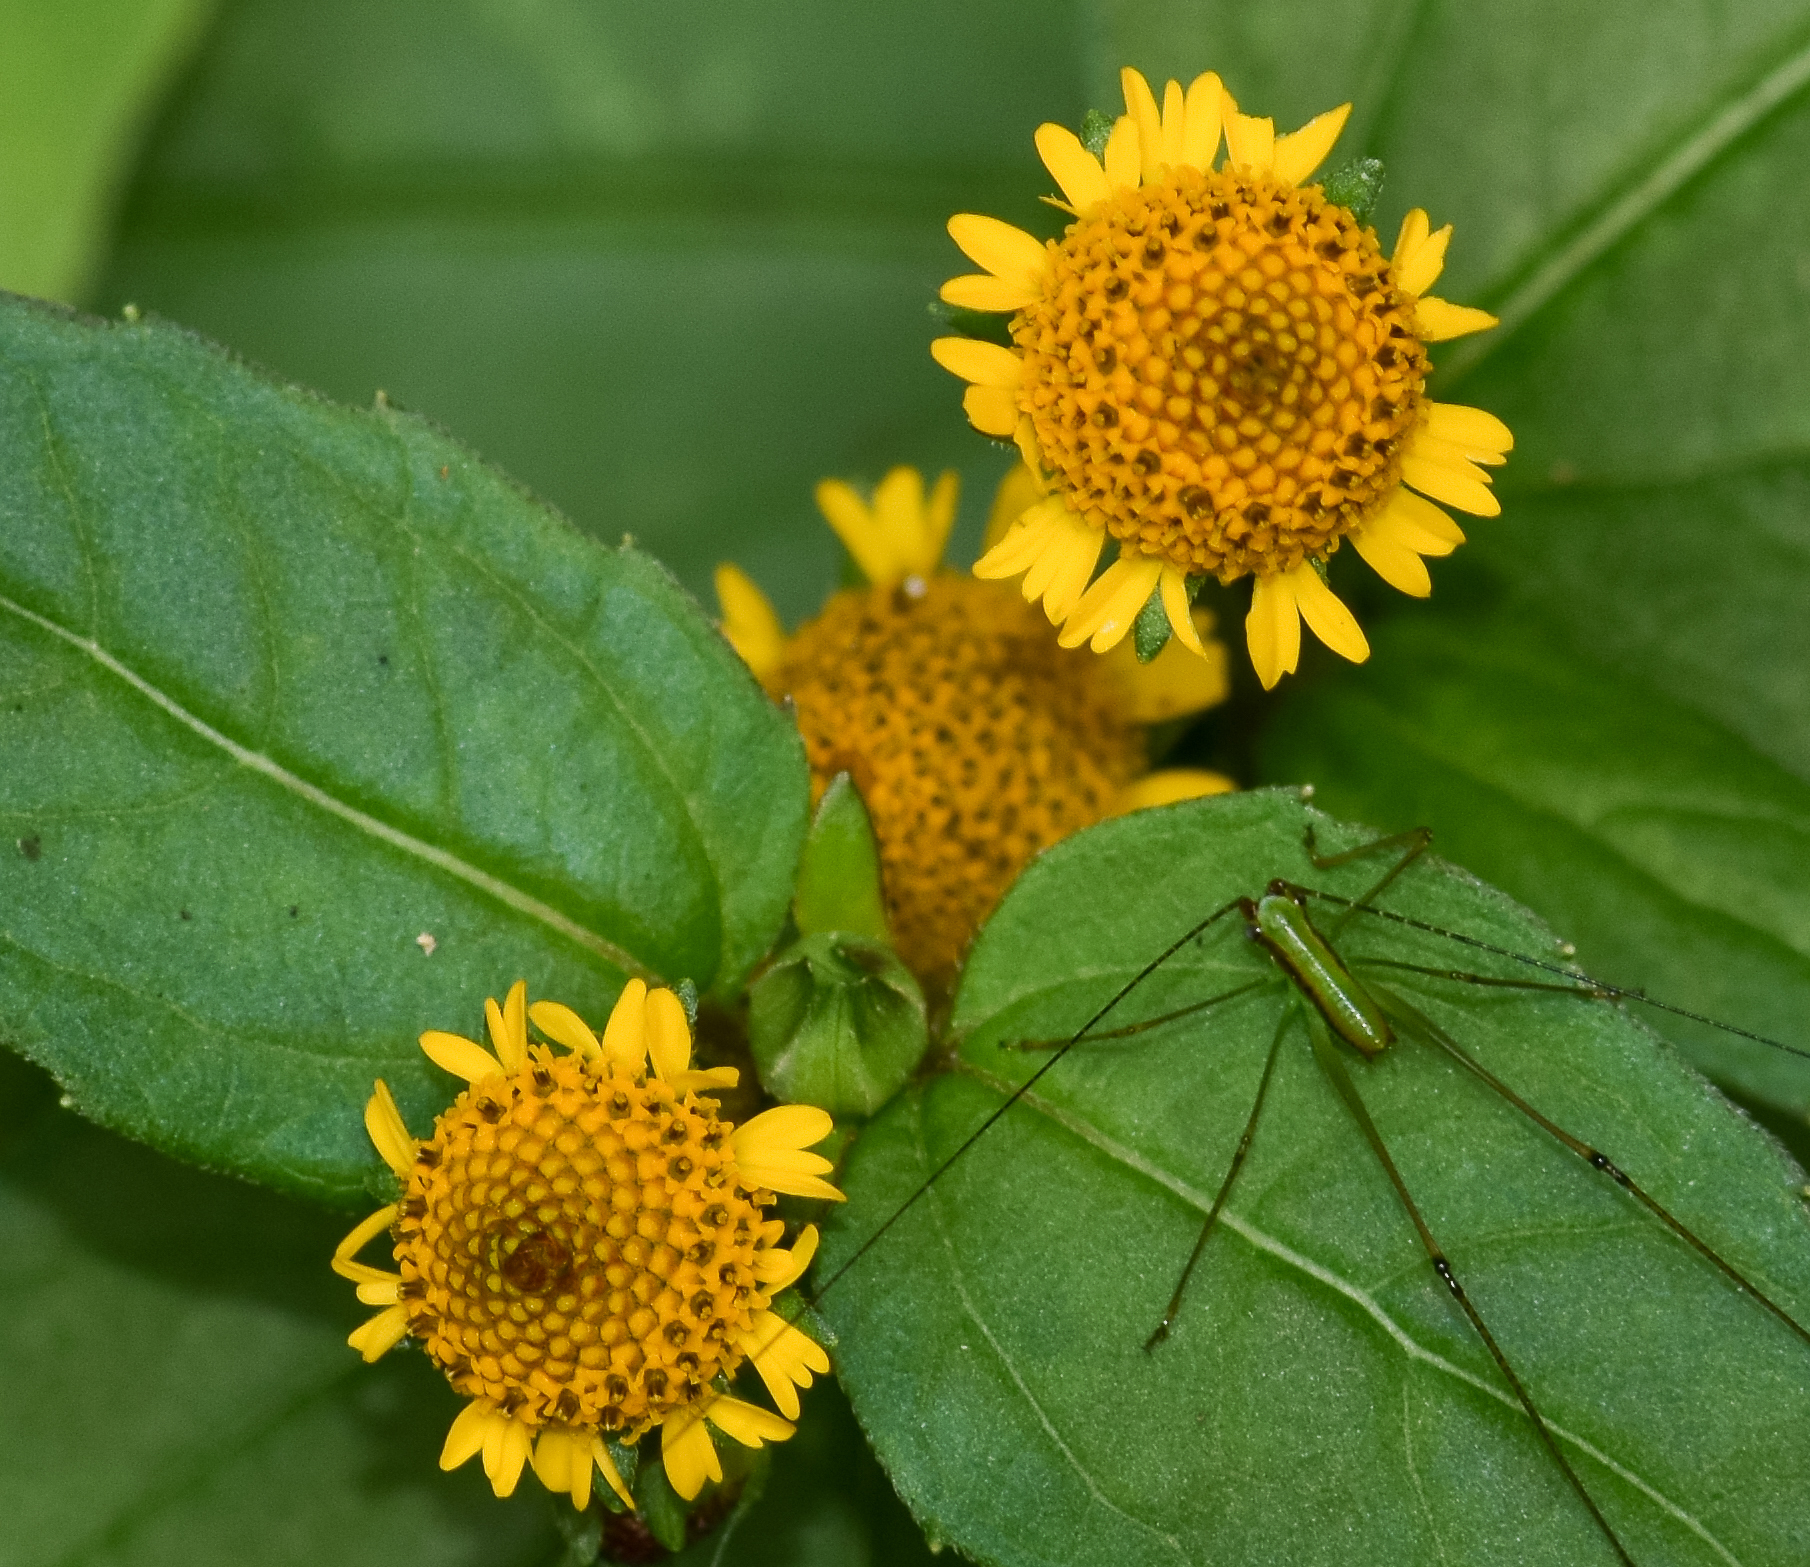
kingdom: Plantae
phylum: Tracheophyta
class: Magnoliopsida
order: Asterales
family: Asteraceae
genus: Acmella
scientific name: Acmella ciliata
